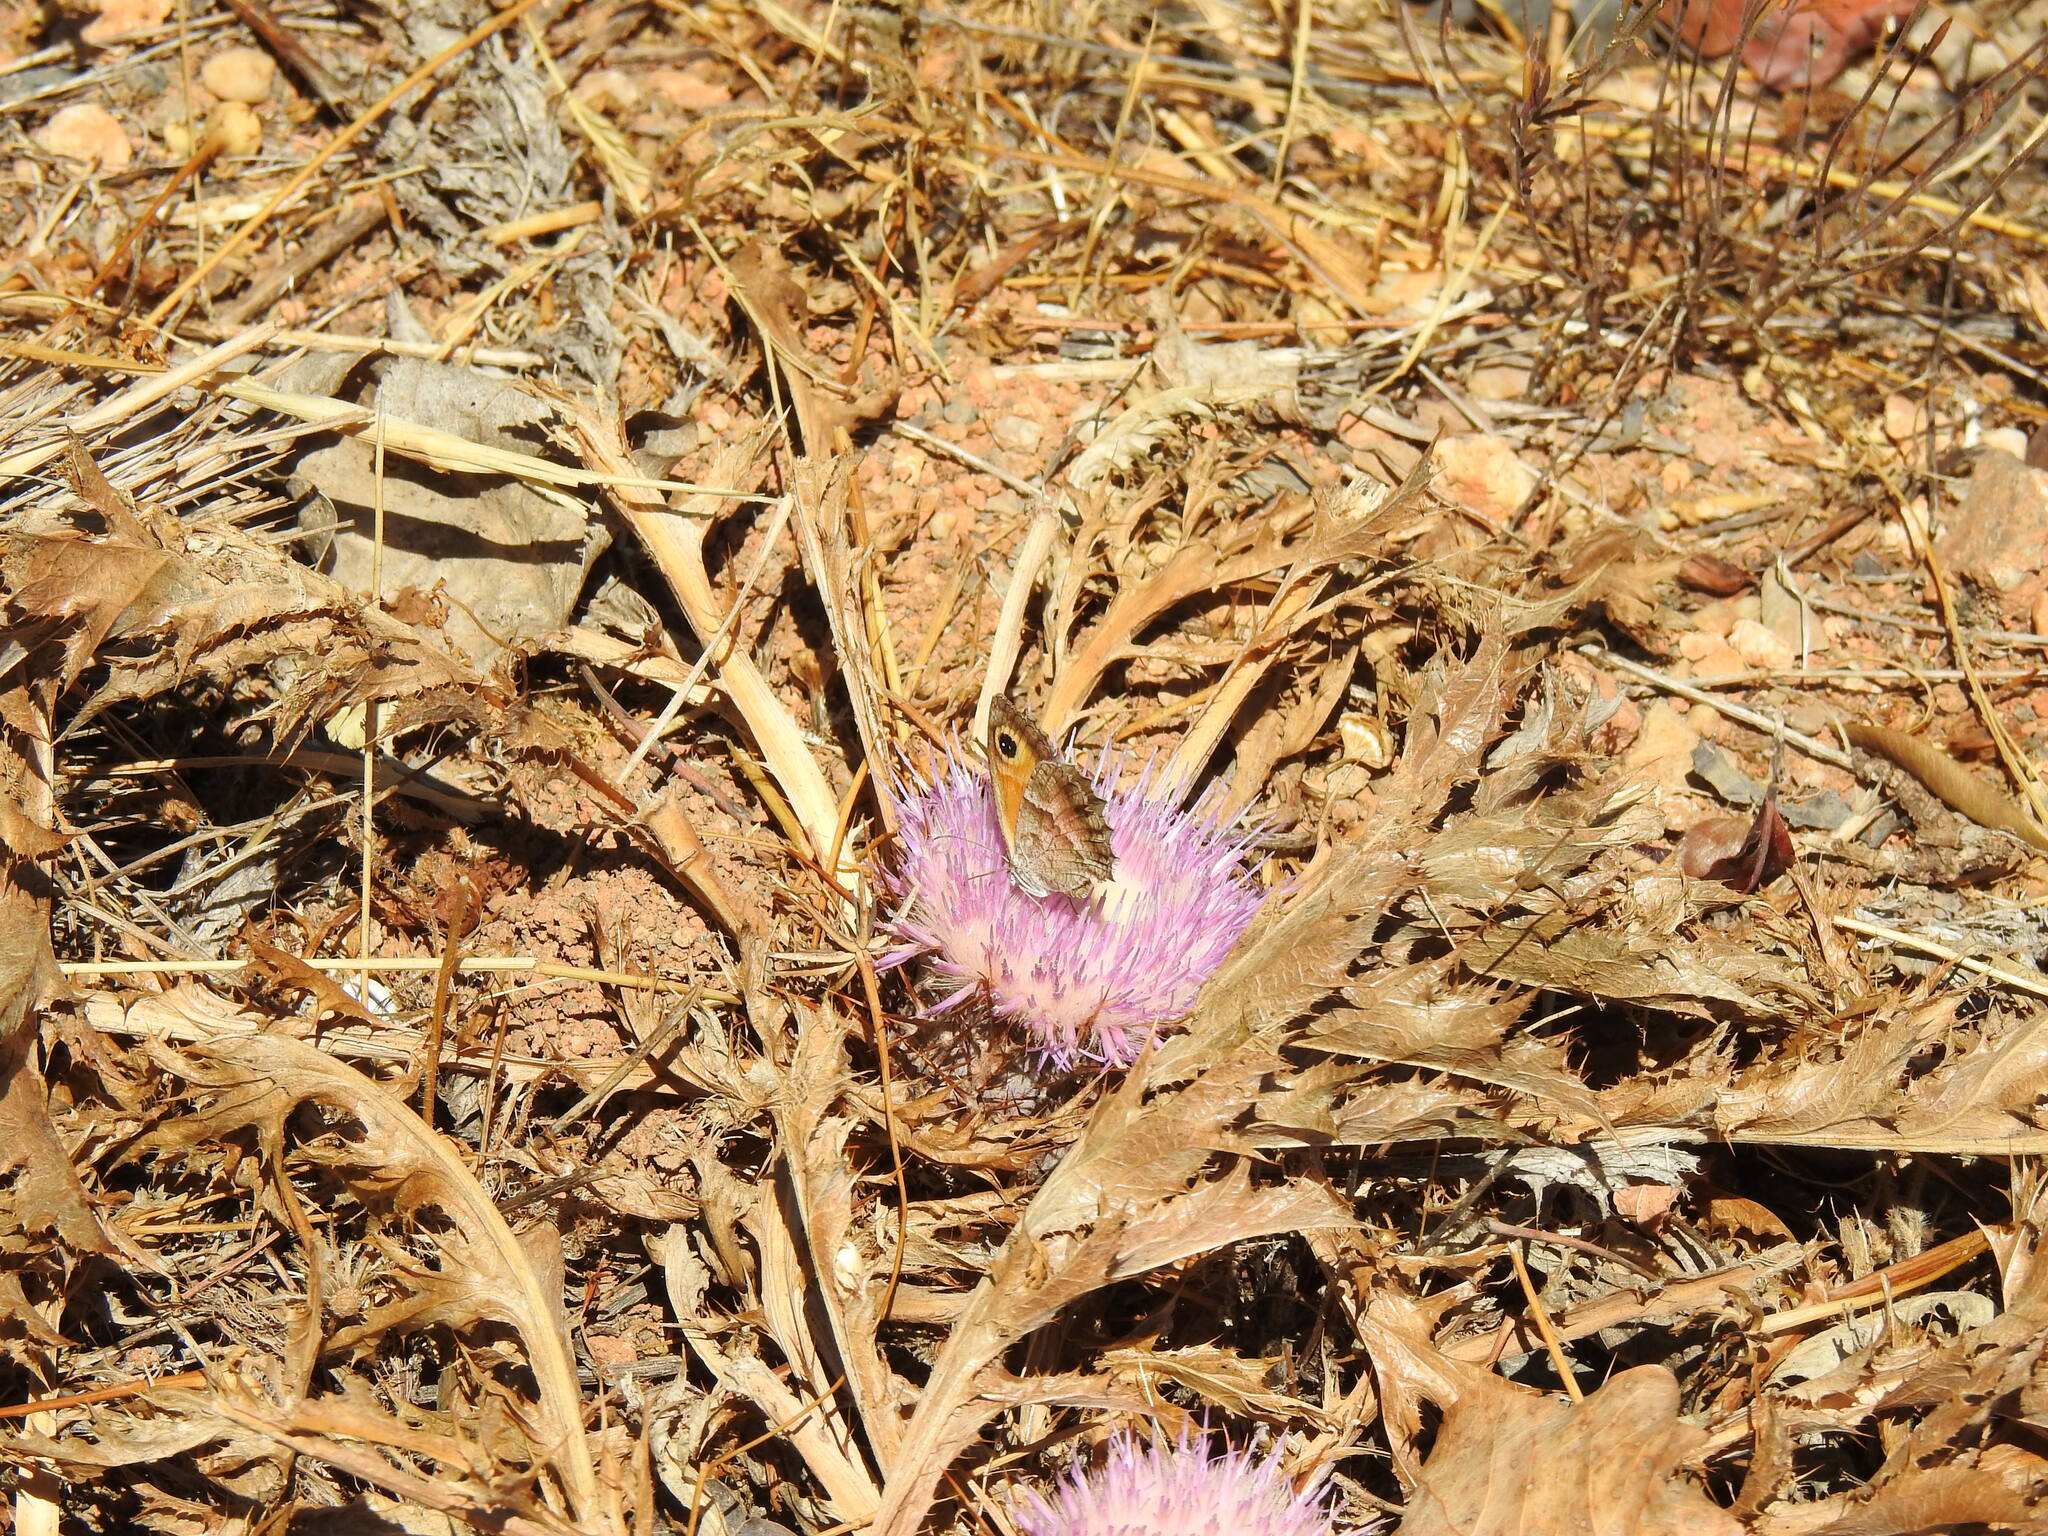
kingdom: Animalia
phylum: Arthropoda
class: Insecta
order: Lepidoptera
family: Nymphalidae
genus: Pyronia
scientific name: Pyronia cecilia
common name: Southern gatekeeper
